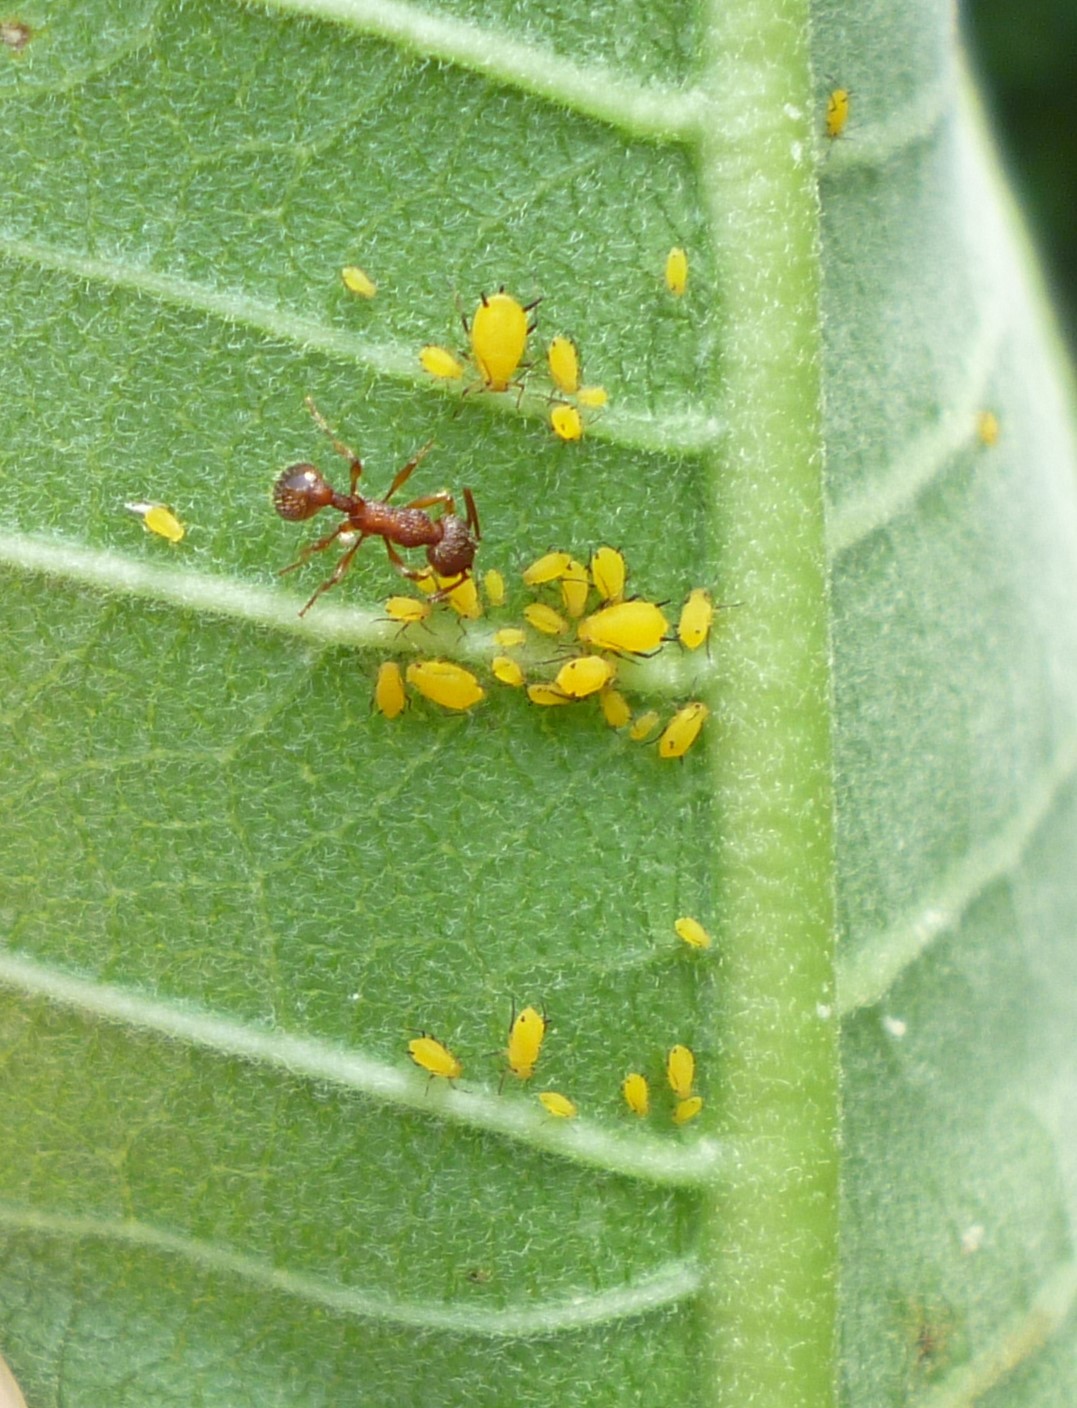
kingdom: Animalia
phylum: Arthropoda
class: Insecta
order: Hemiptera
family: Aphididae
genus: Aphis
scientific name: Aphis nerii
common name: Oleander aphid
